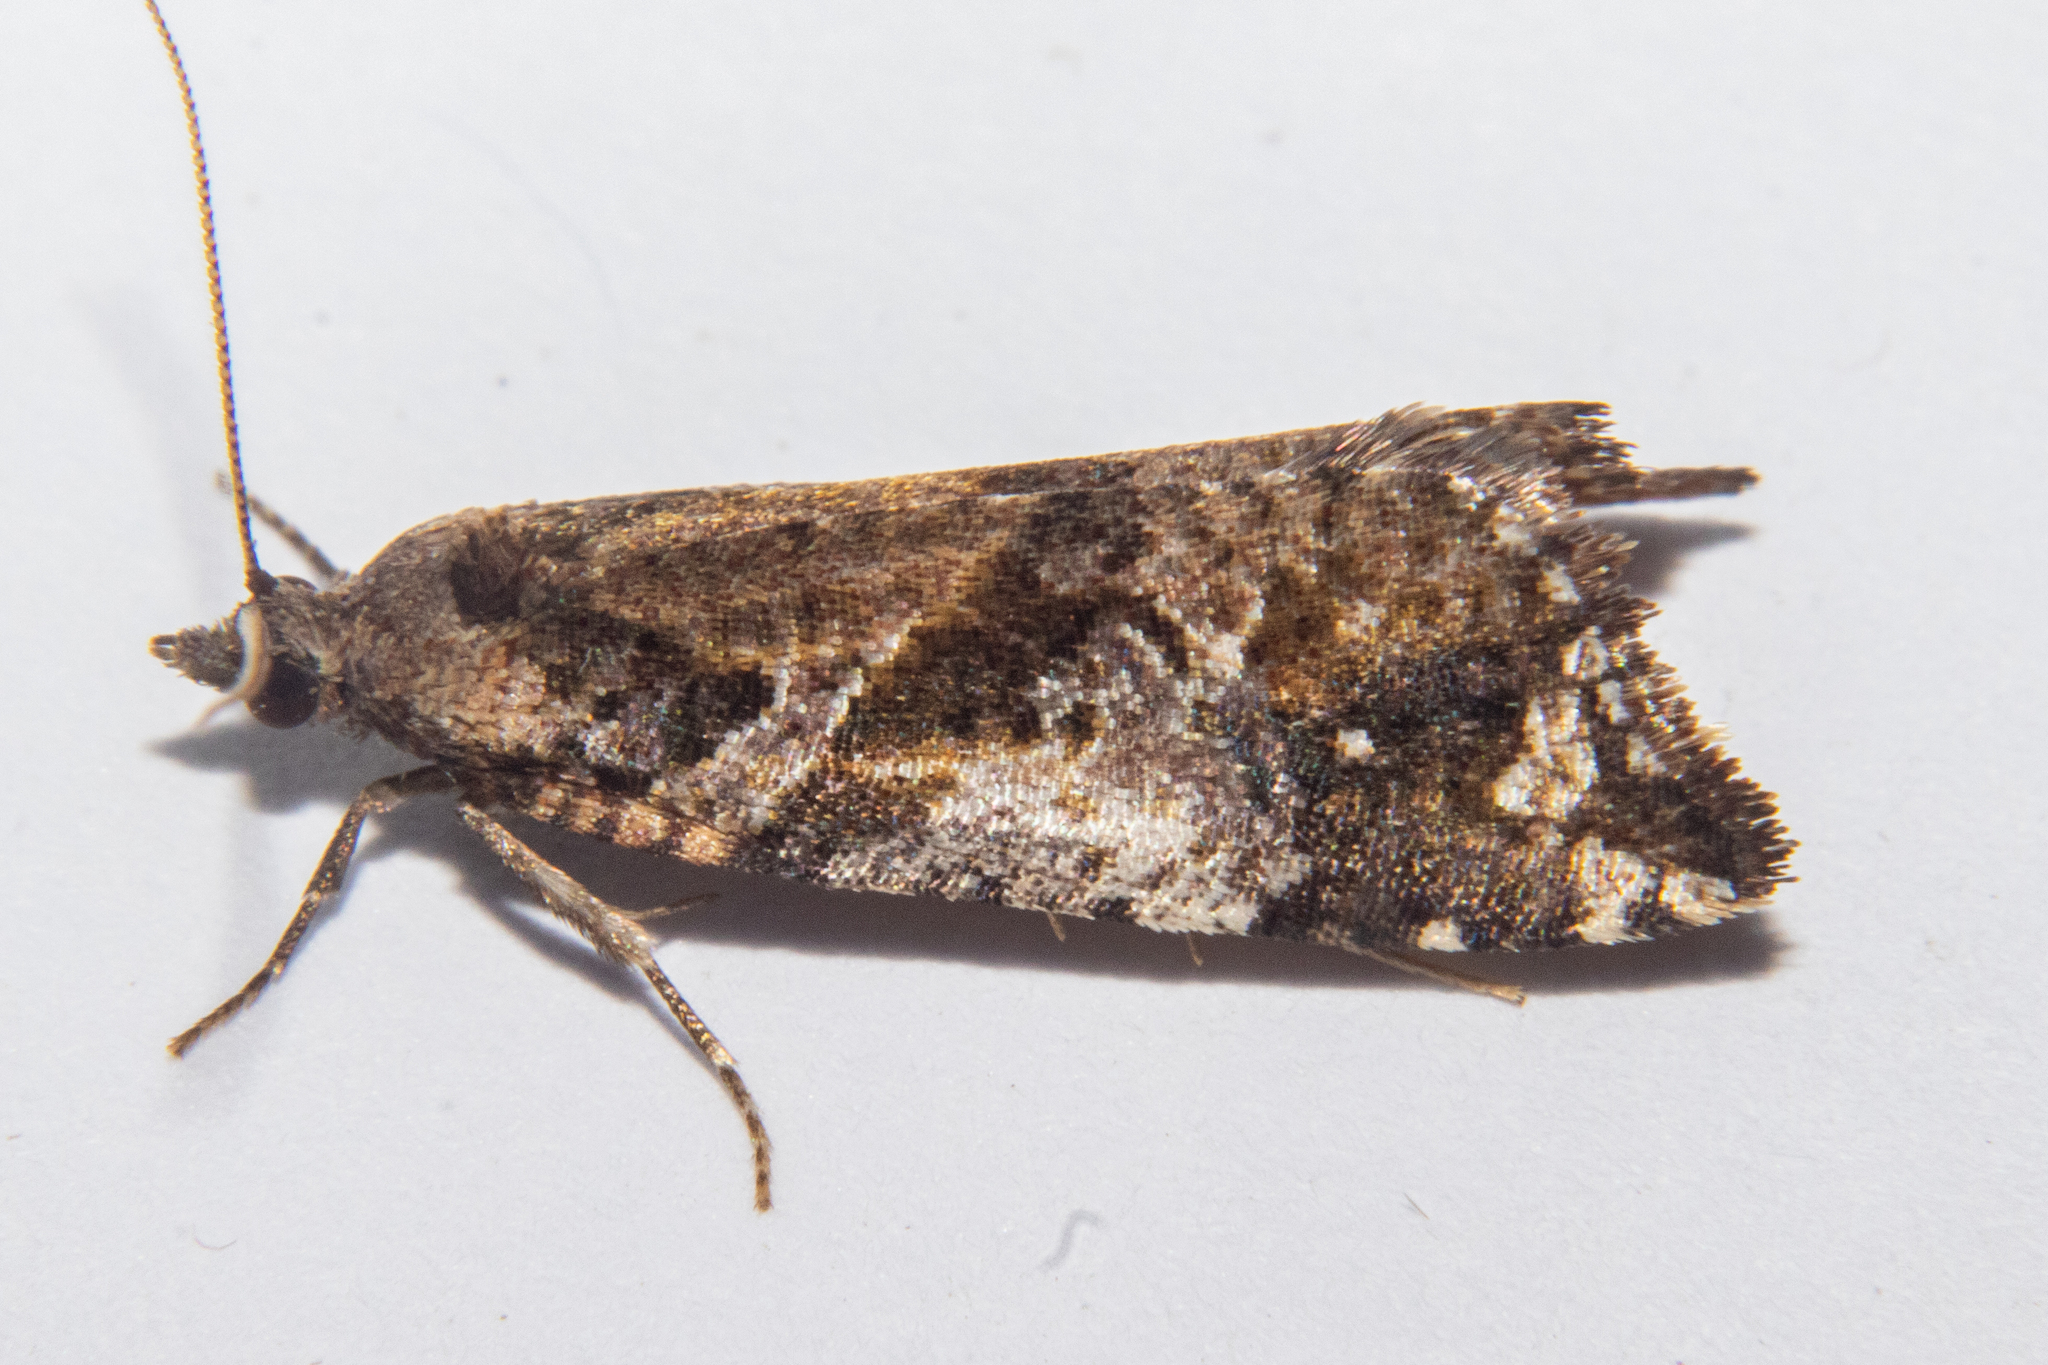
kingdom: Animalia
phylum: Arthropoda
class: Insecta
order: Lepidoptera
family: Tortricidae
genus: Pyrgotis
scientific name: Pyrgotis plagiatana
